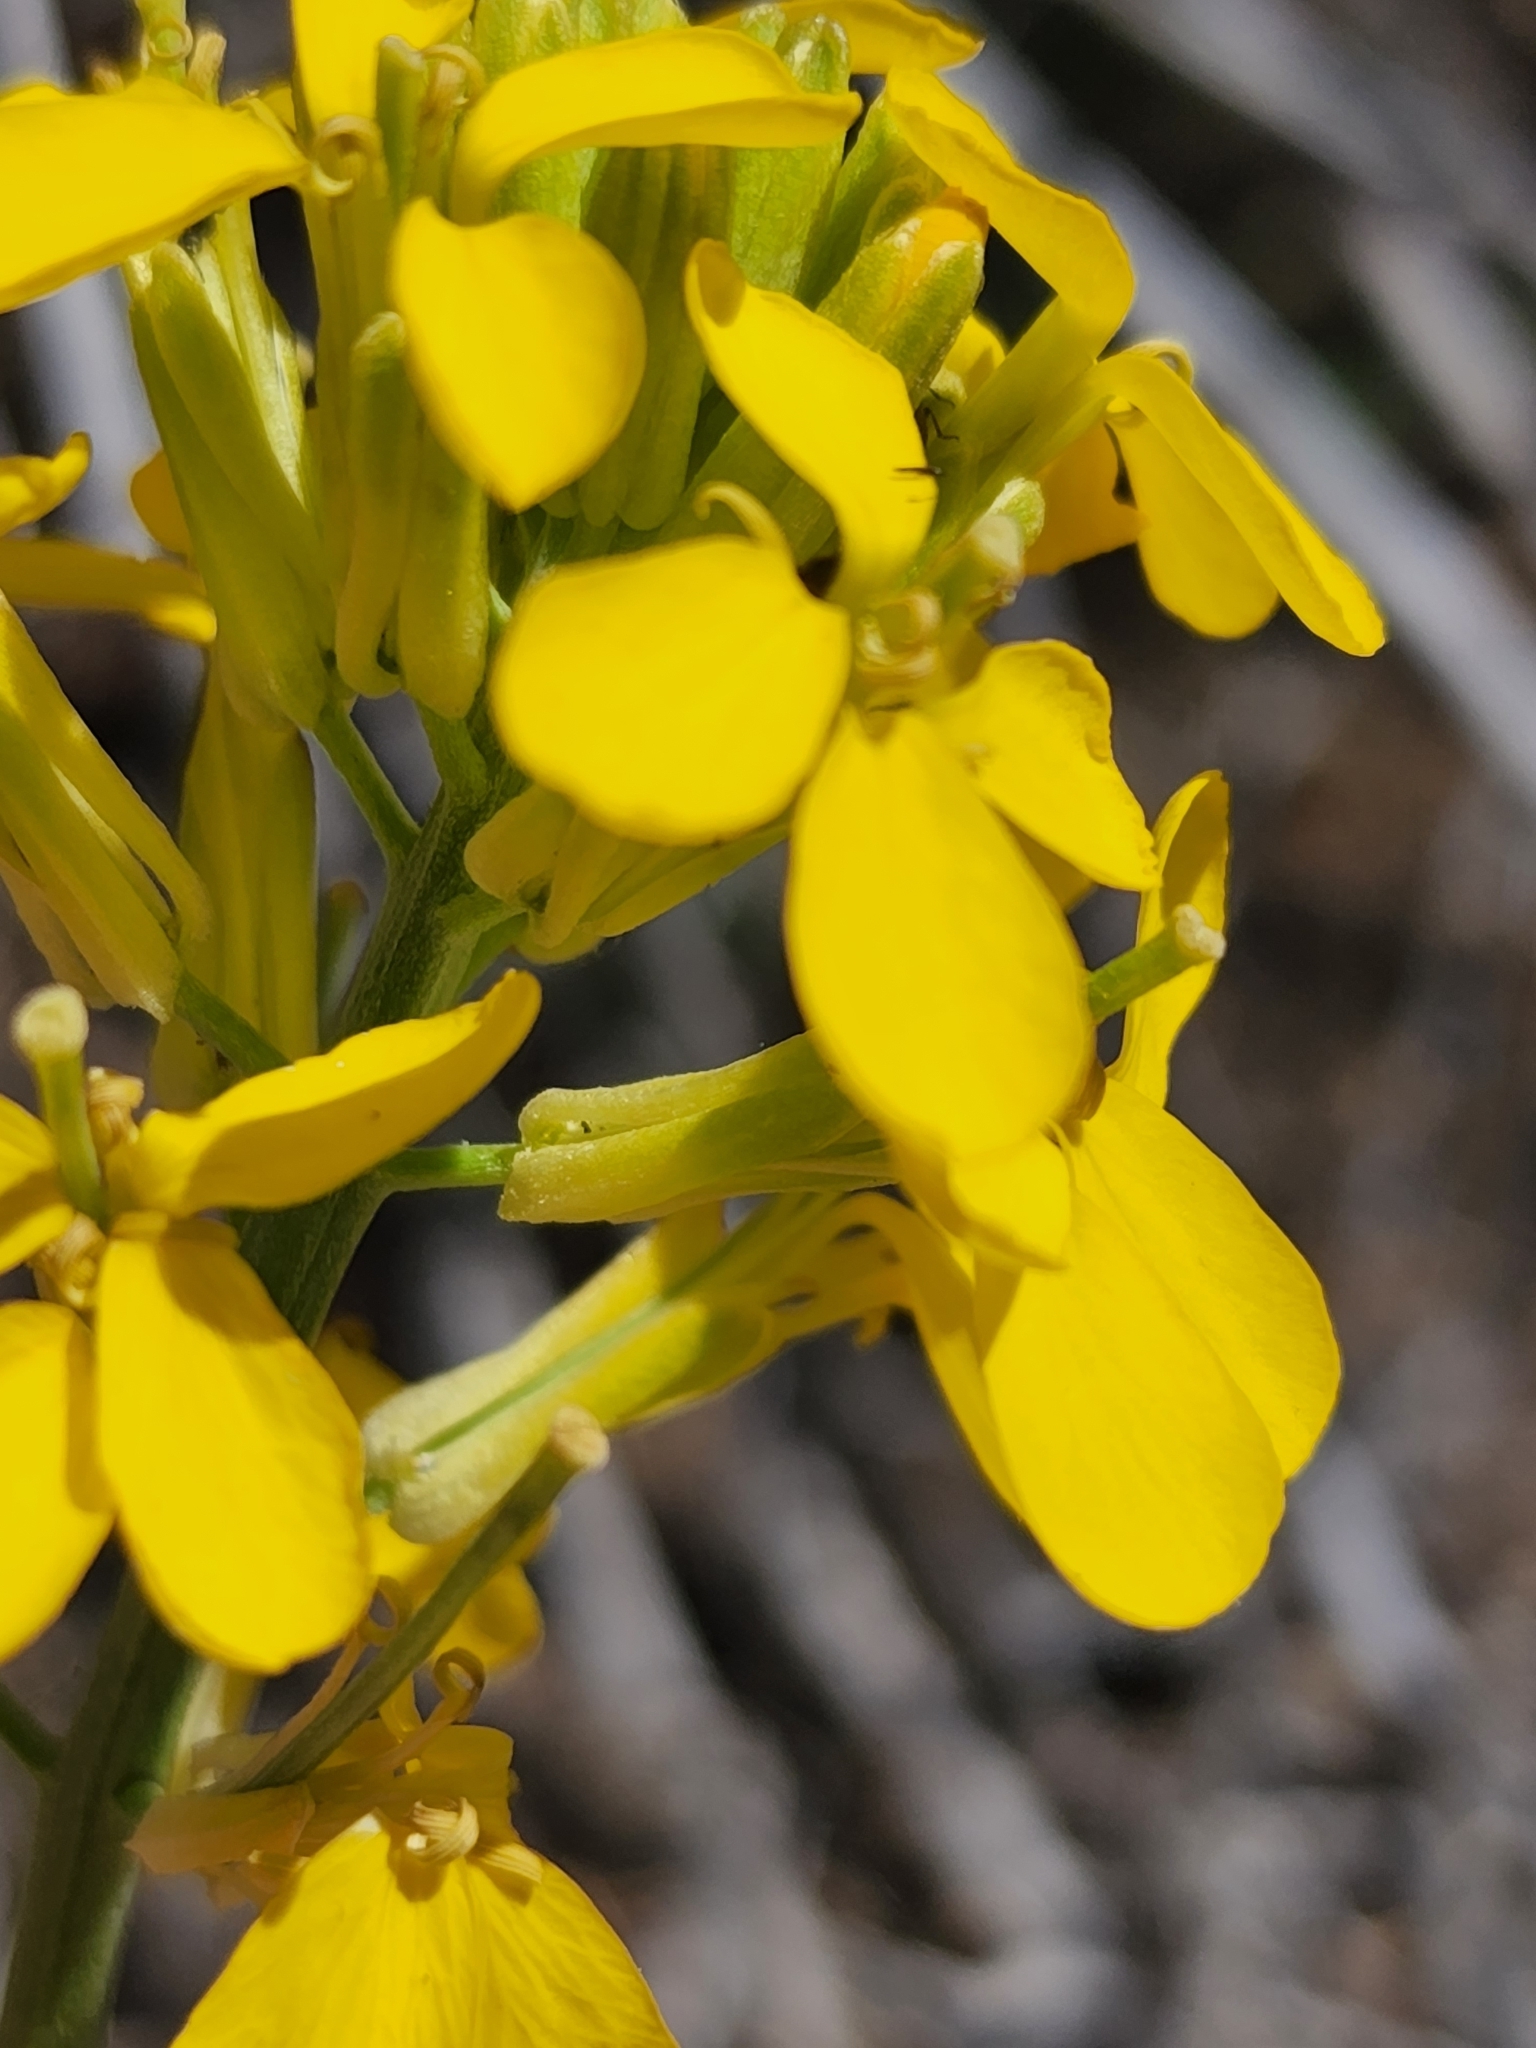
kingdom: Plantae
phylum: Tracheophyta
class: Magnoliopsida
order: Brassicales
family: Brassicaceae
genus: Erysimum
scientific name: Erysimum capitatum
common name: Western wallflower
